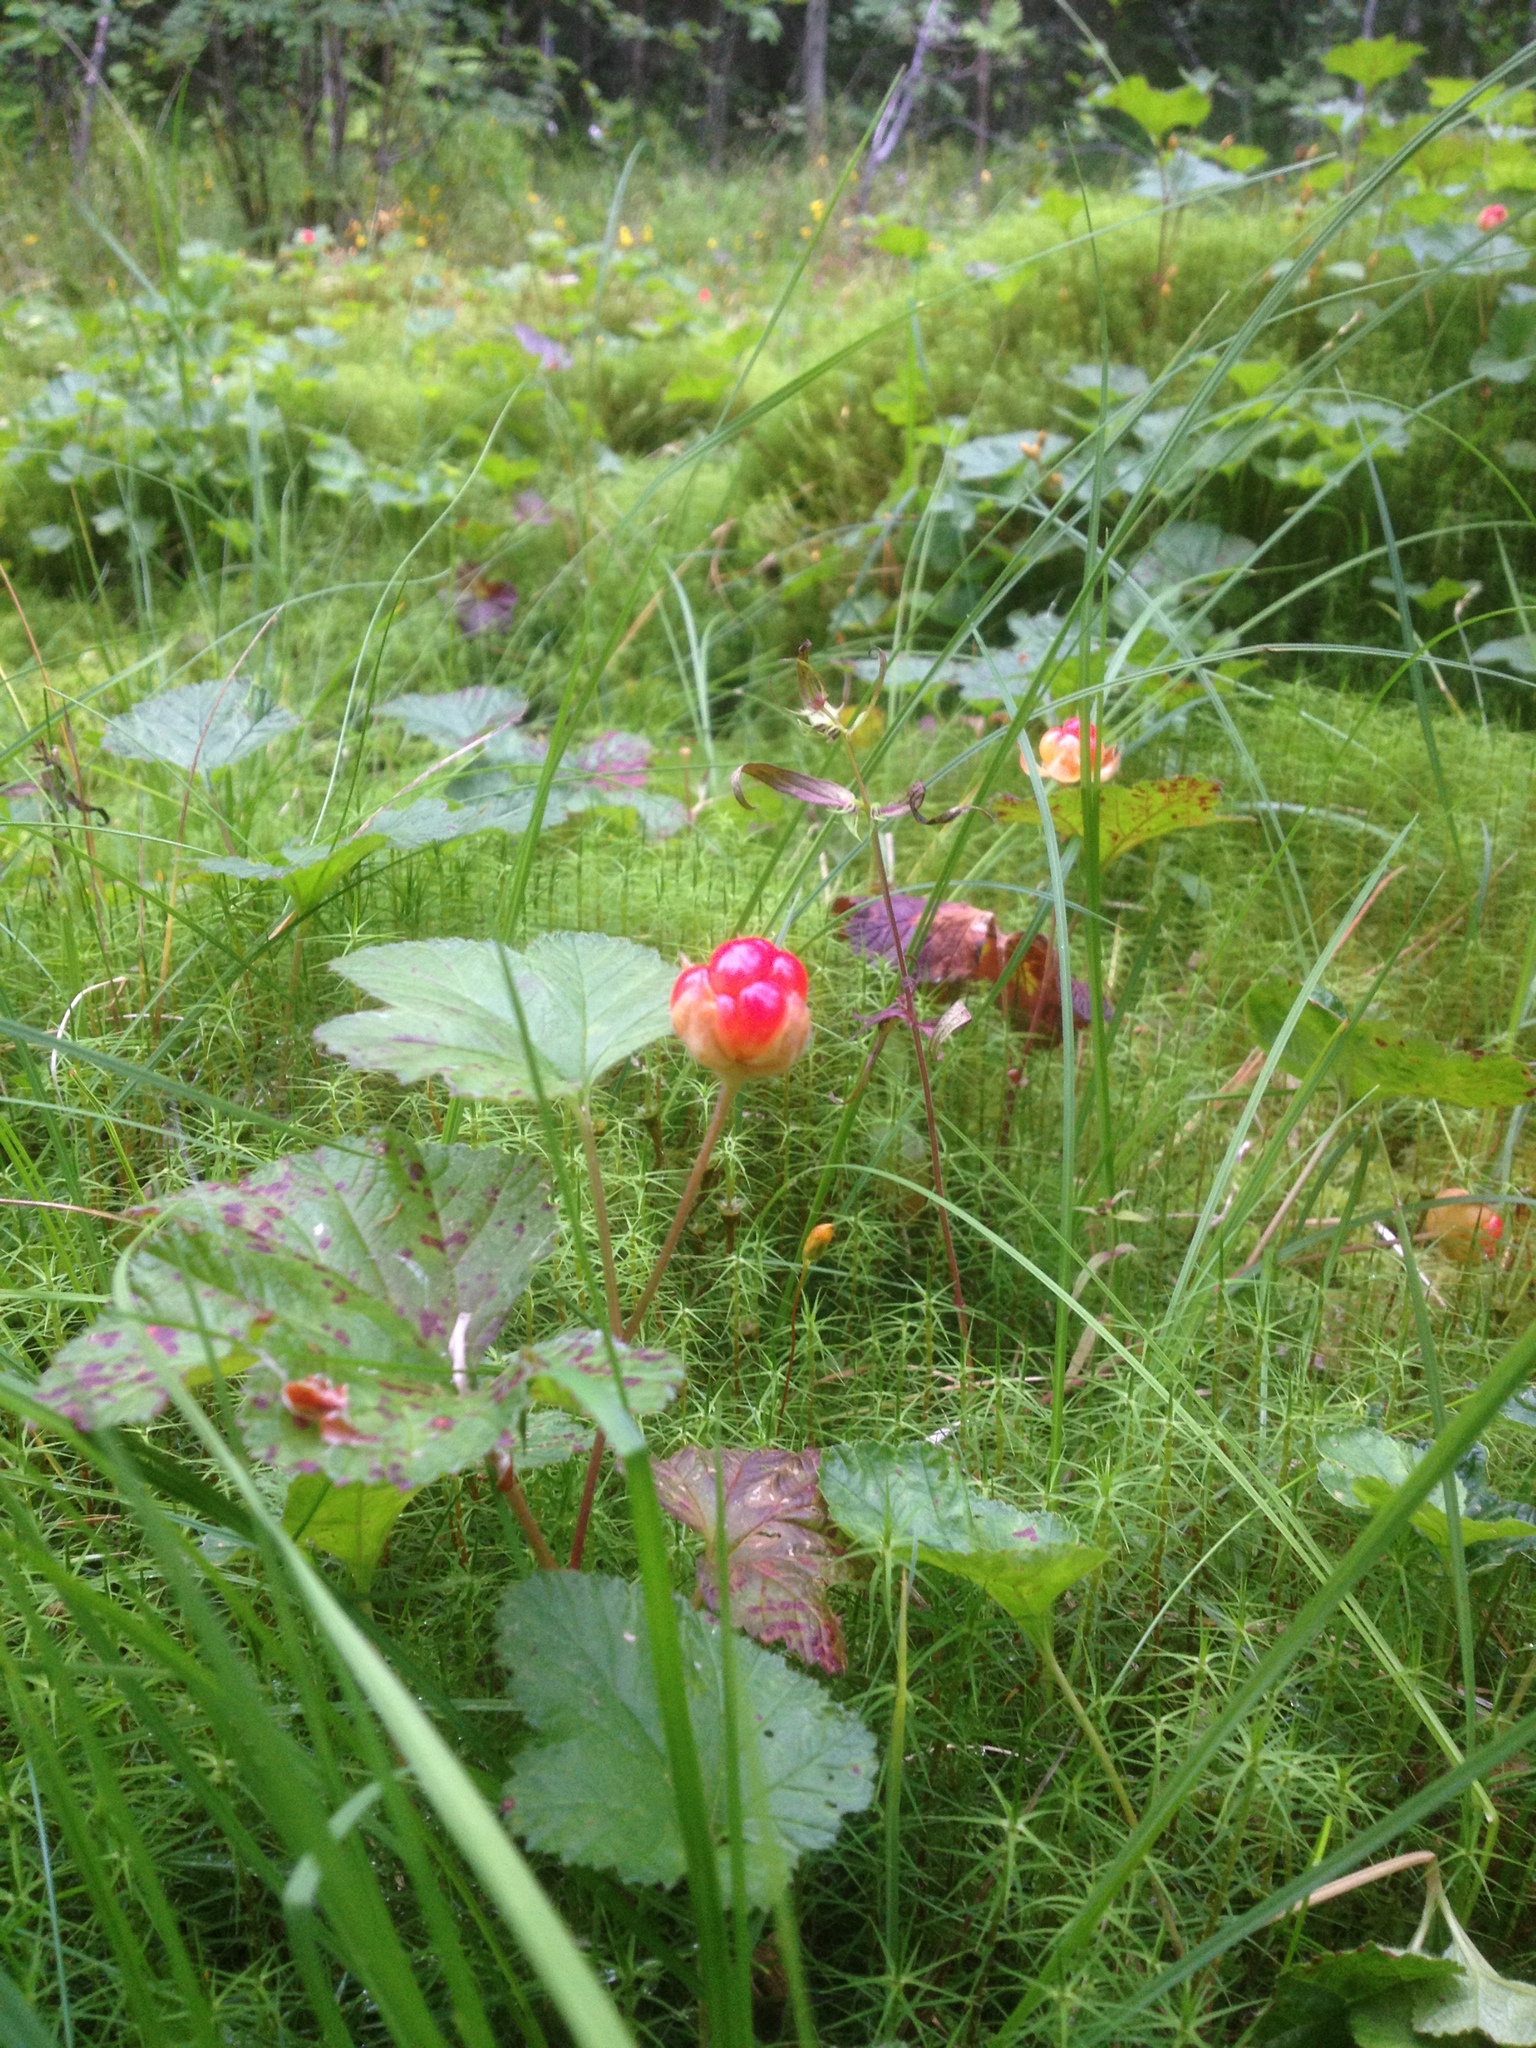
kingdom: Plantae
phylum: Tracheophyta
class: Magnoliopsida
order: Rosales
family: Rosaceae
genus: Rubus
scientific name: Rubus chamaemorus
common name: Cloudberry
